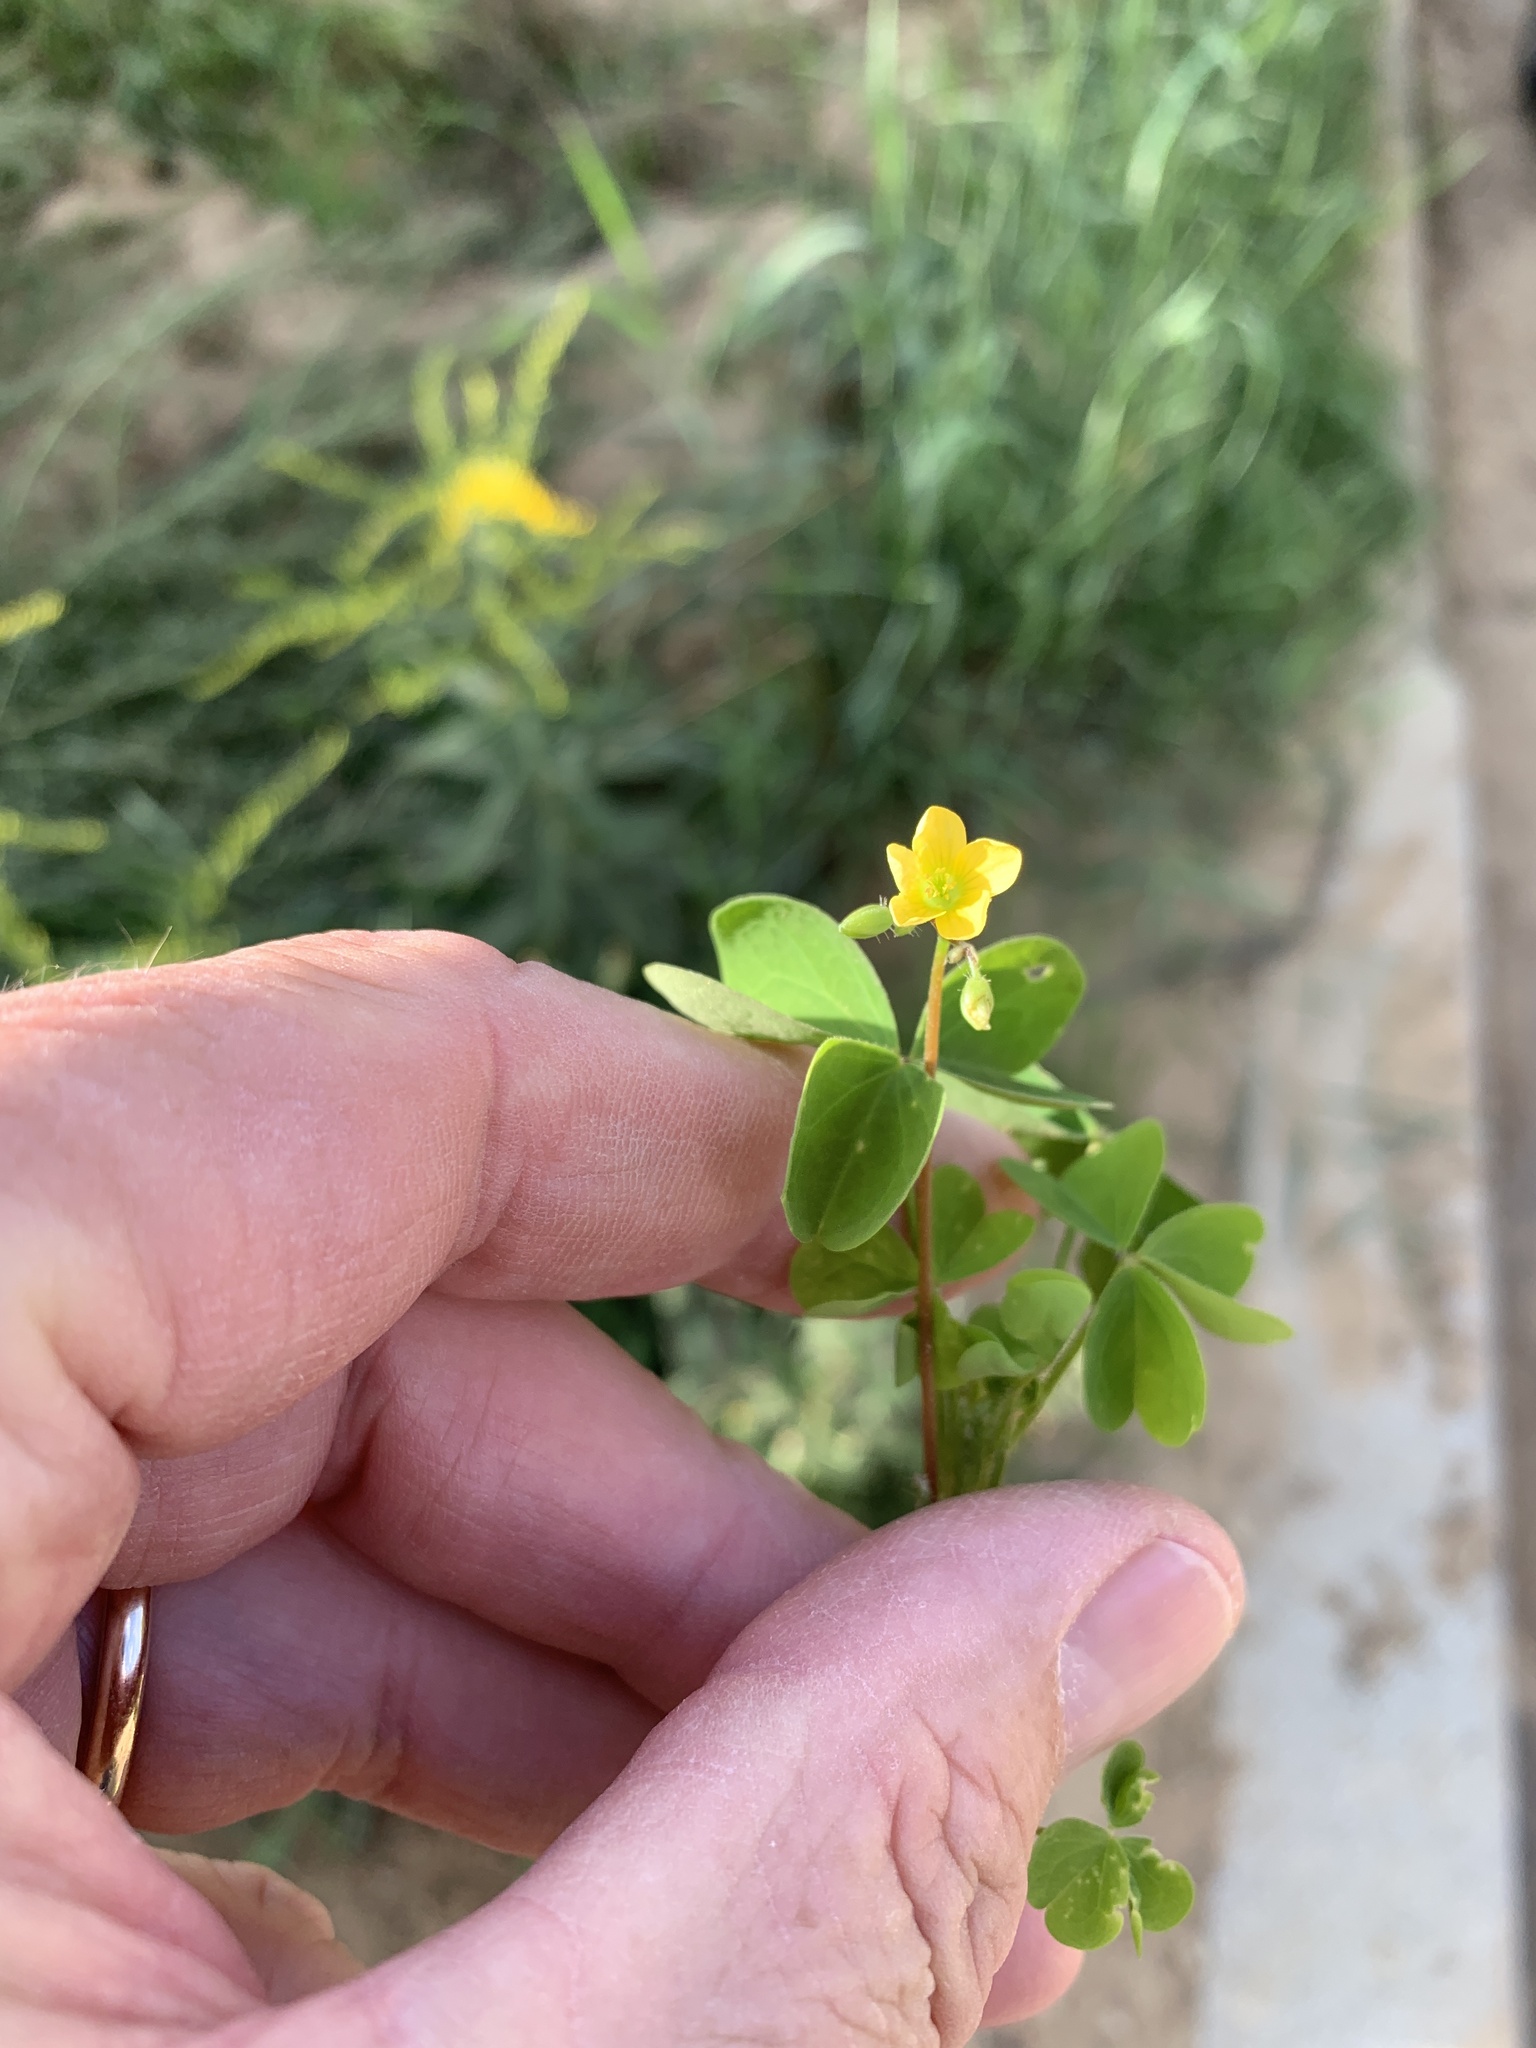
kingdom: Plantae
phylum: Tracheophyta
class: Magnoliopsida
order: Oxalidales
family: Oxalidaceae
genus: Oxalis
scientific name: Oxalis stricta
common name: Upright yellow-sorrel
